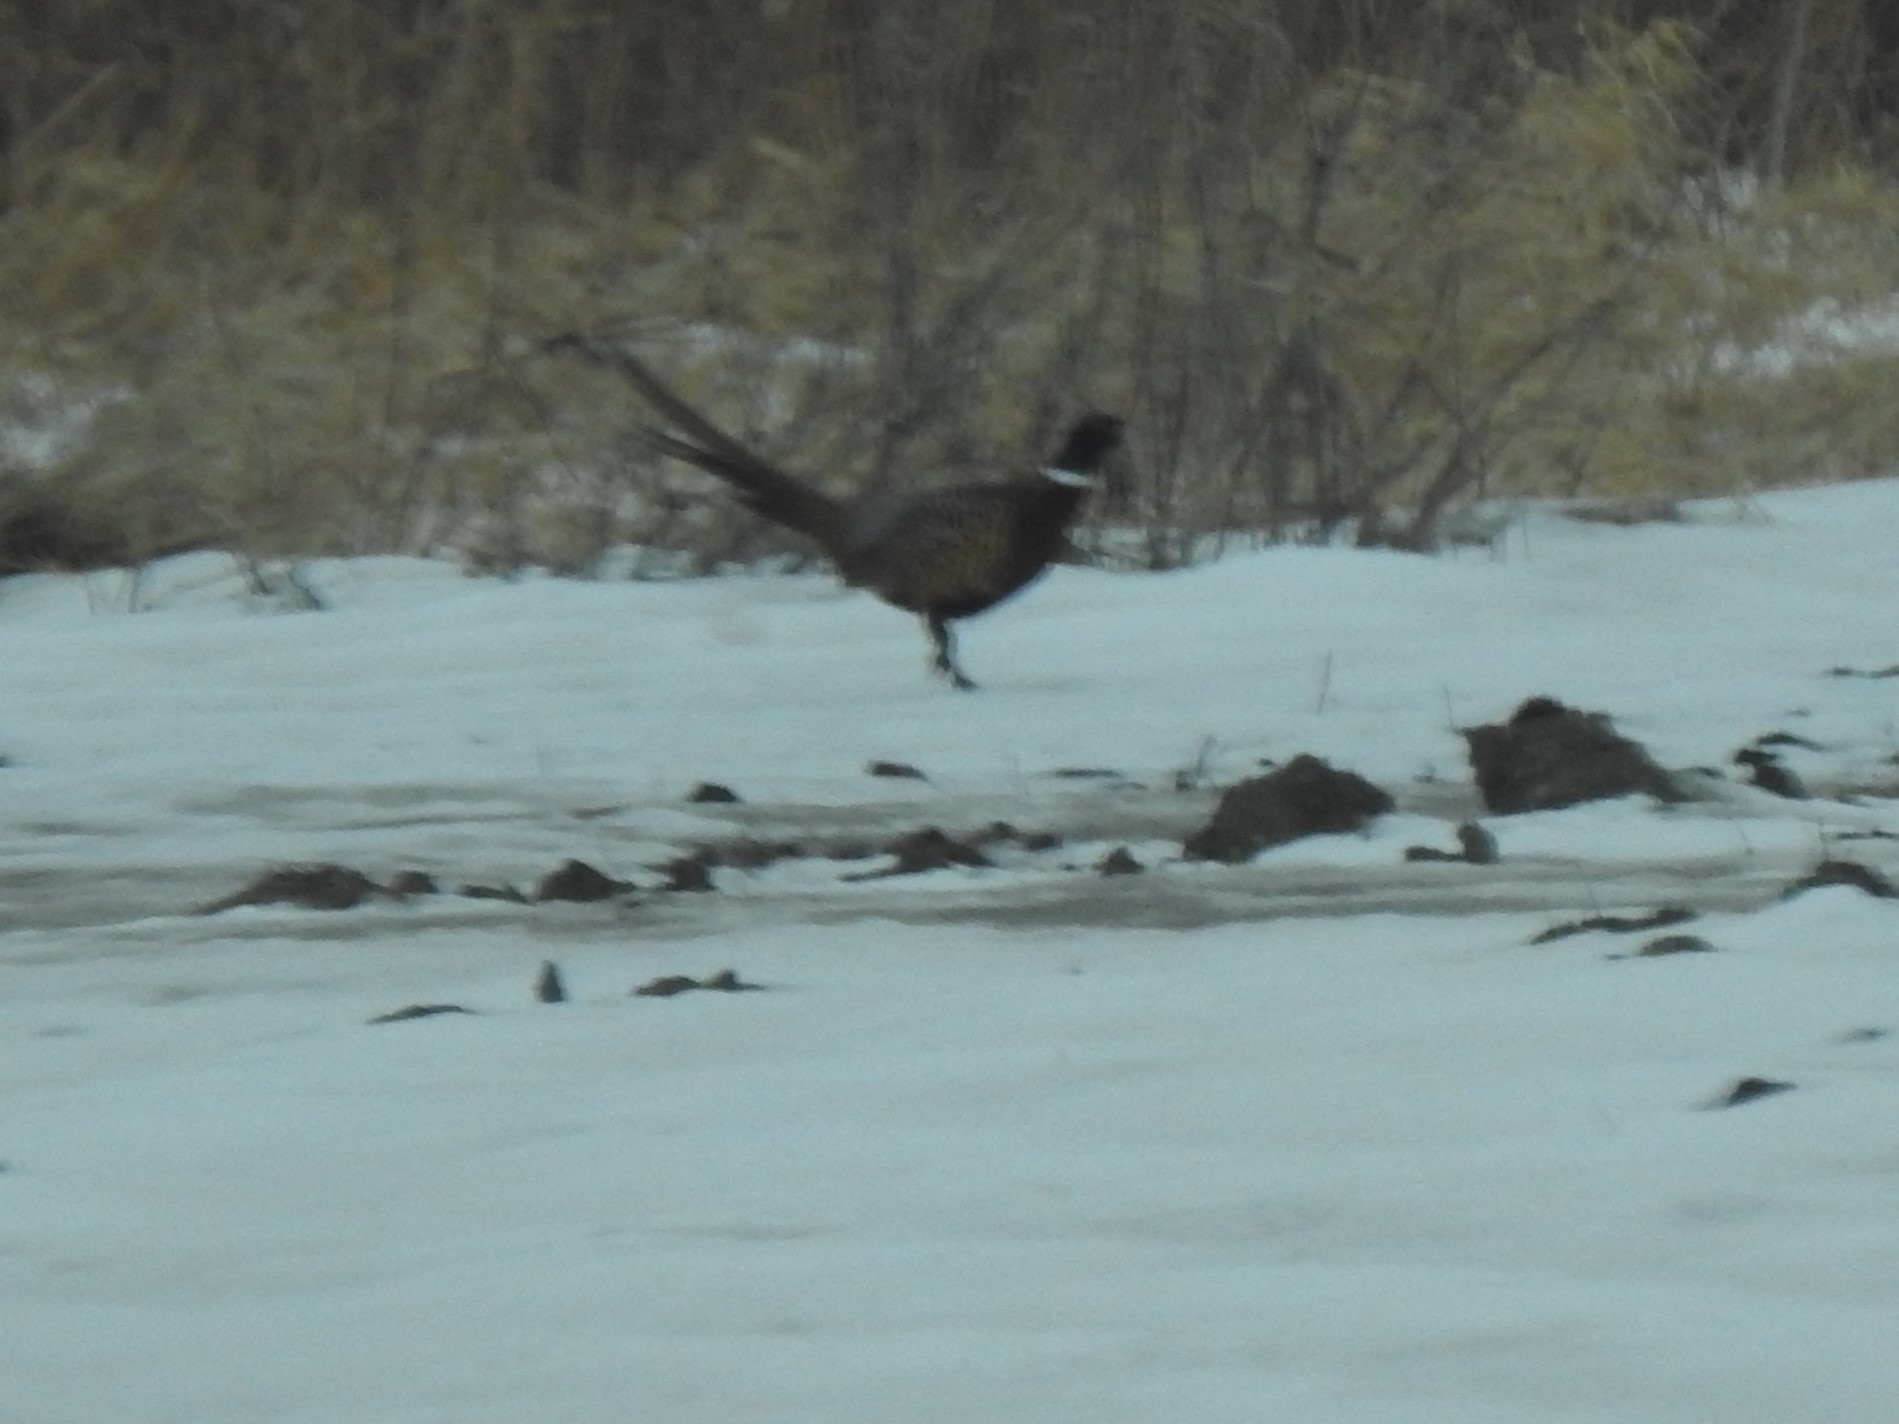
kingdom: Animalia
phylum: Chordata
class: Aves
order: Galliformes
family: Phasianidae
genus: Phasianus
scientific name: Phasianus colchicus
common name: Common pheasant
